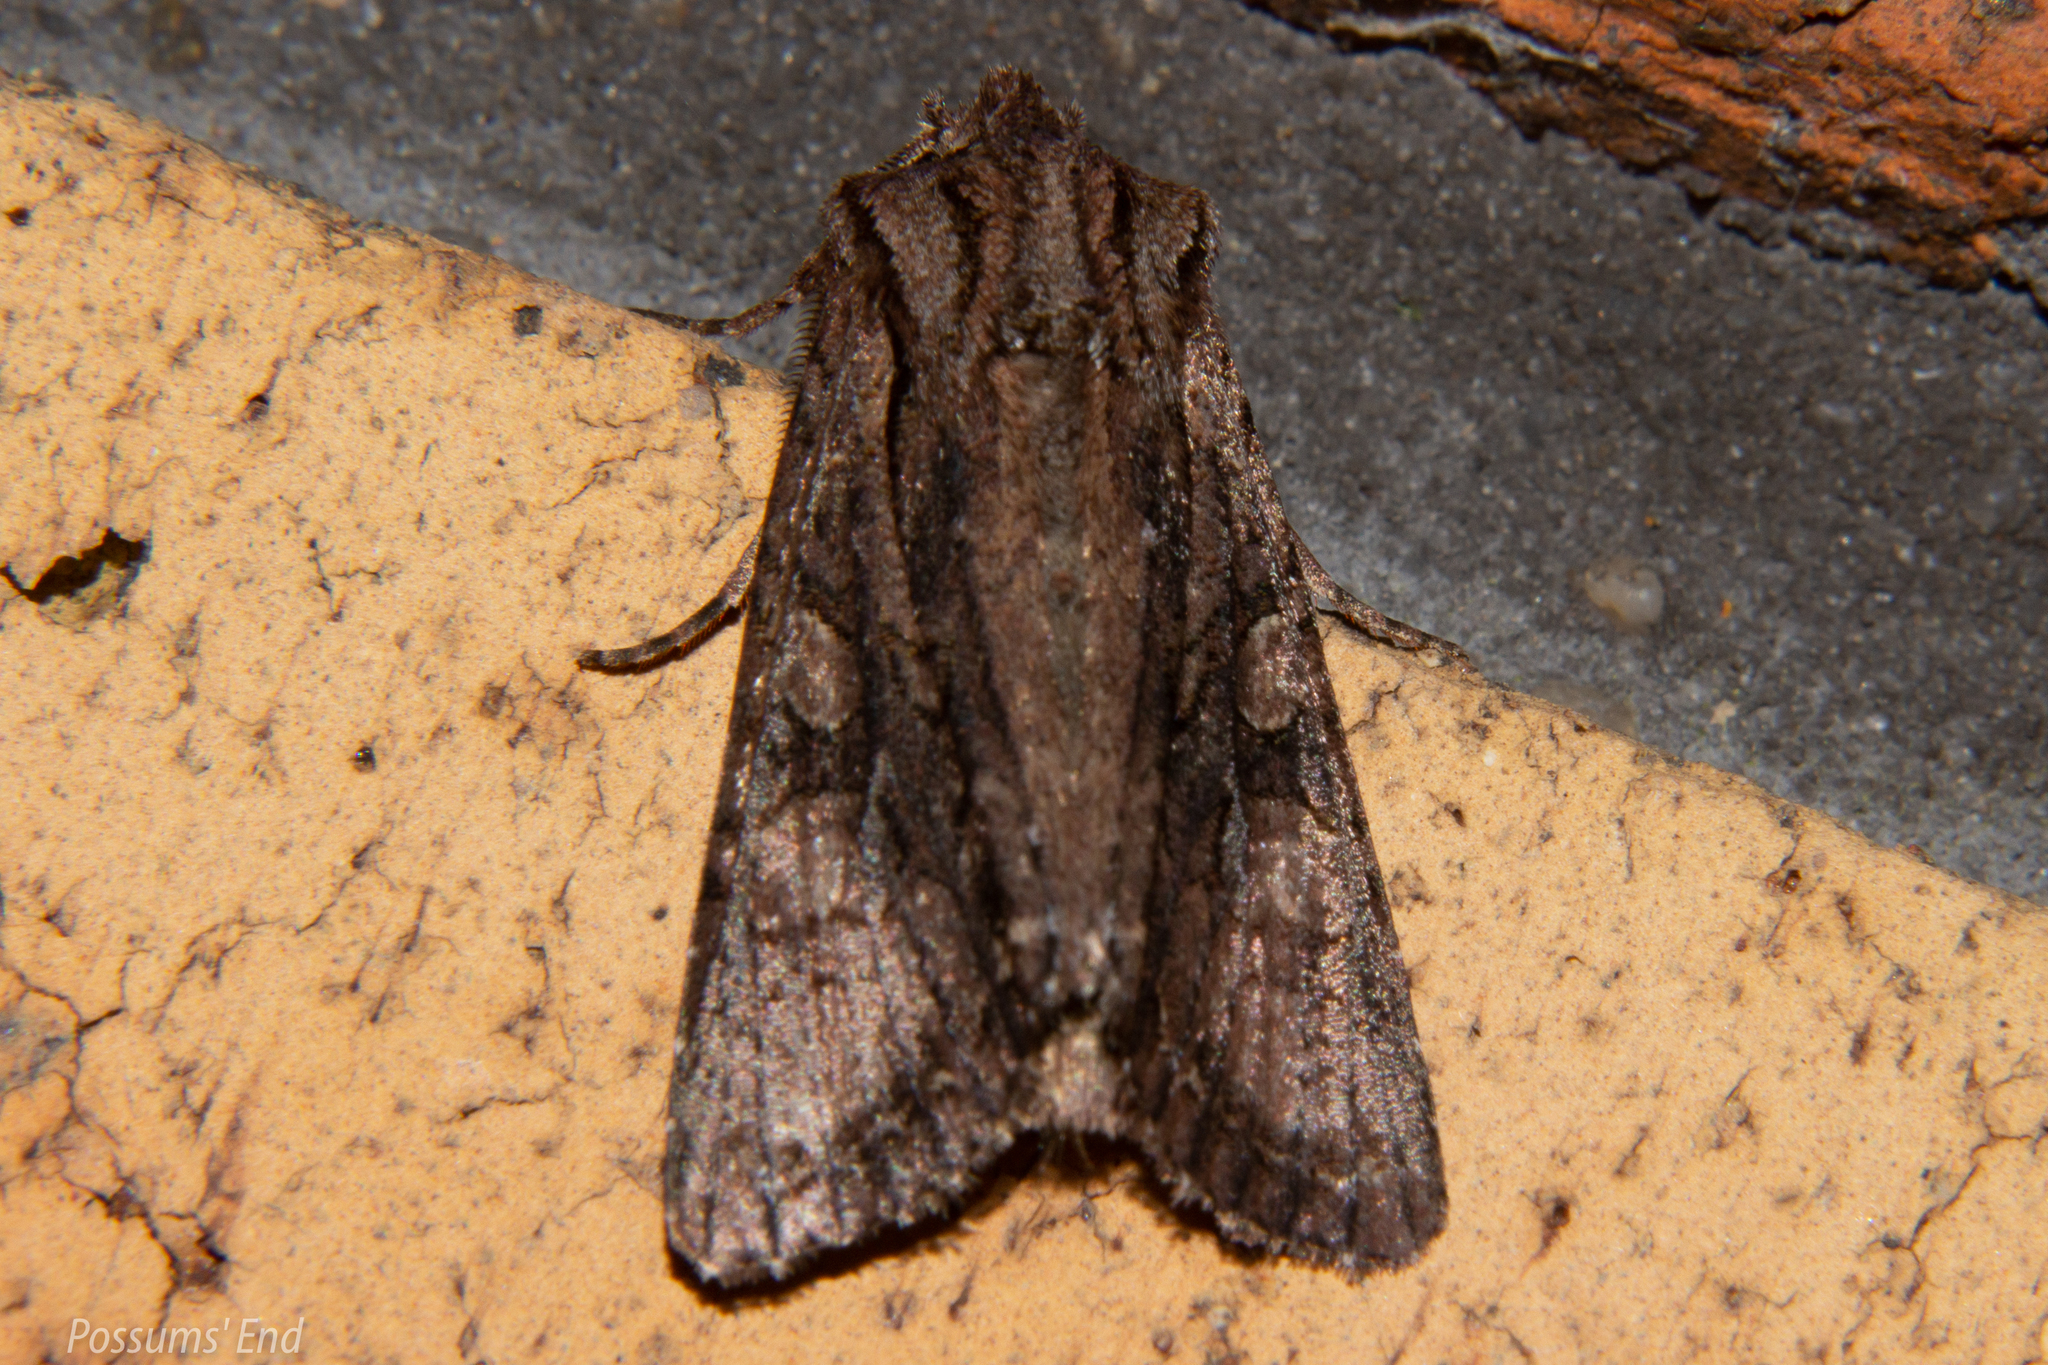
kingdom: Animalia
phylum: Arthropoda
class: Insecta
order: Lepidoptera
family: Noctuidae
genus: Ichneutica
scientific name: Ichneutica mutans
